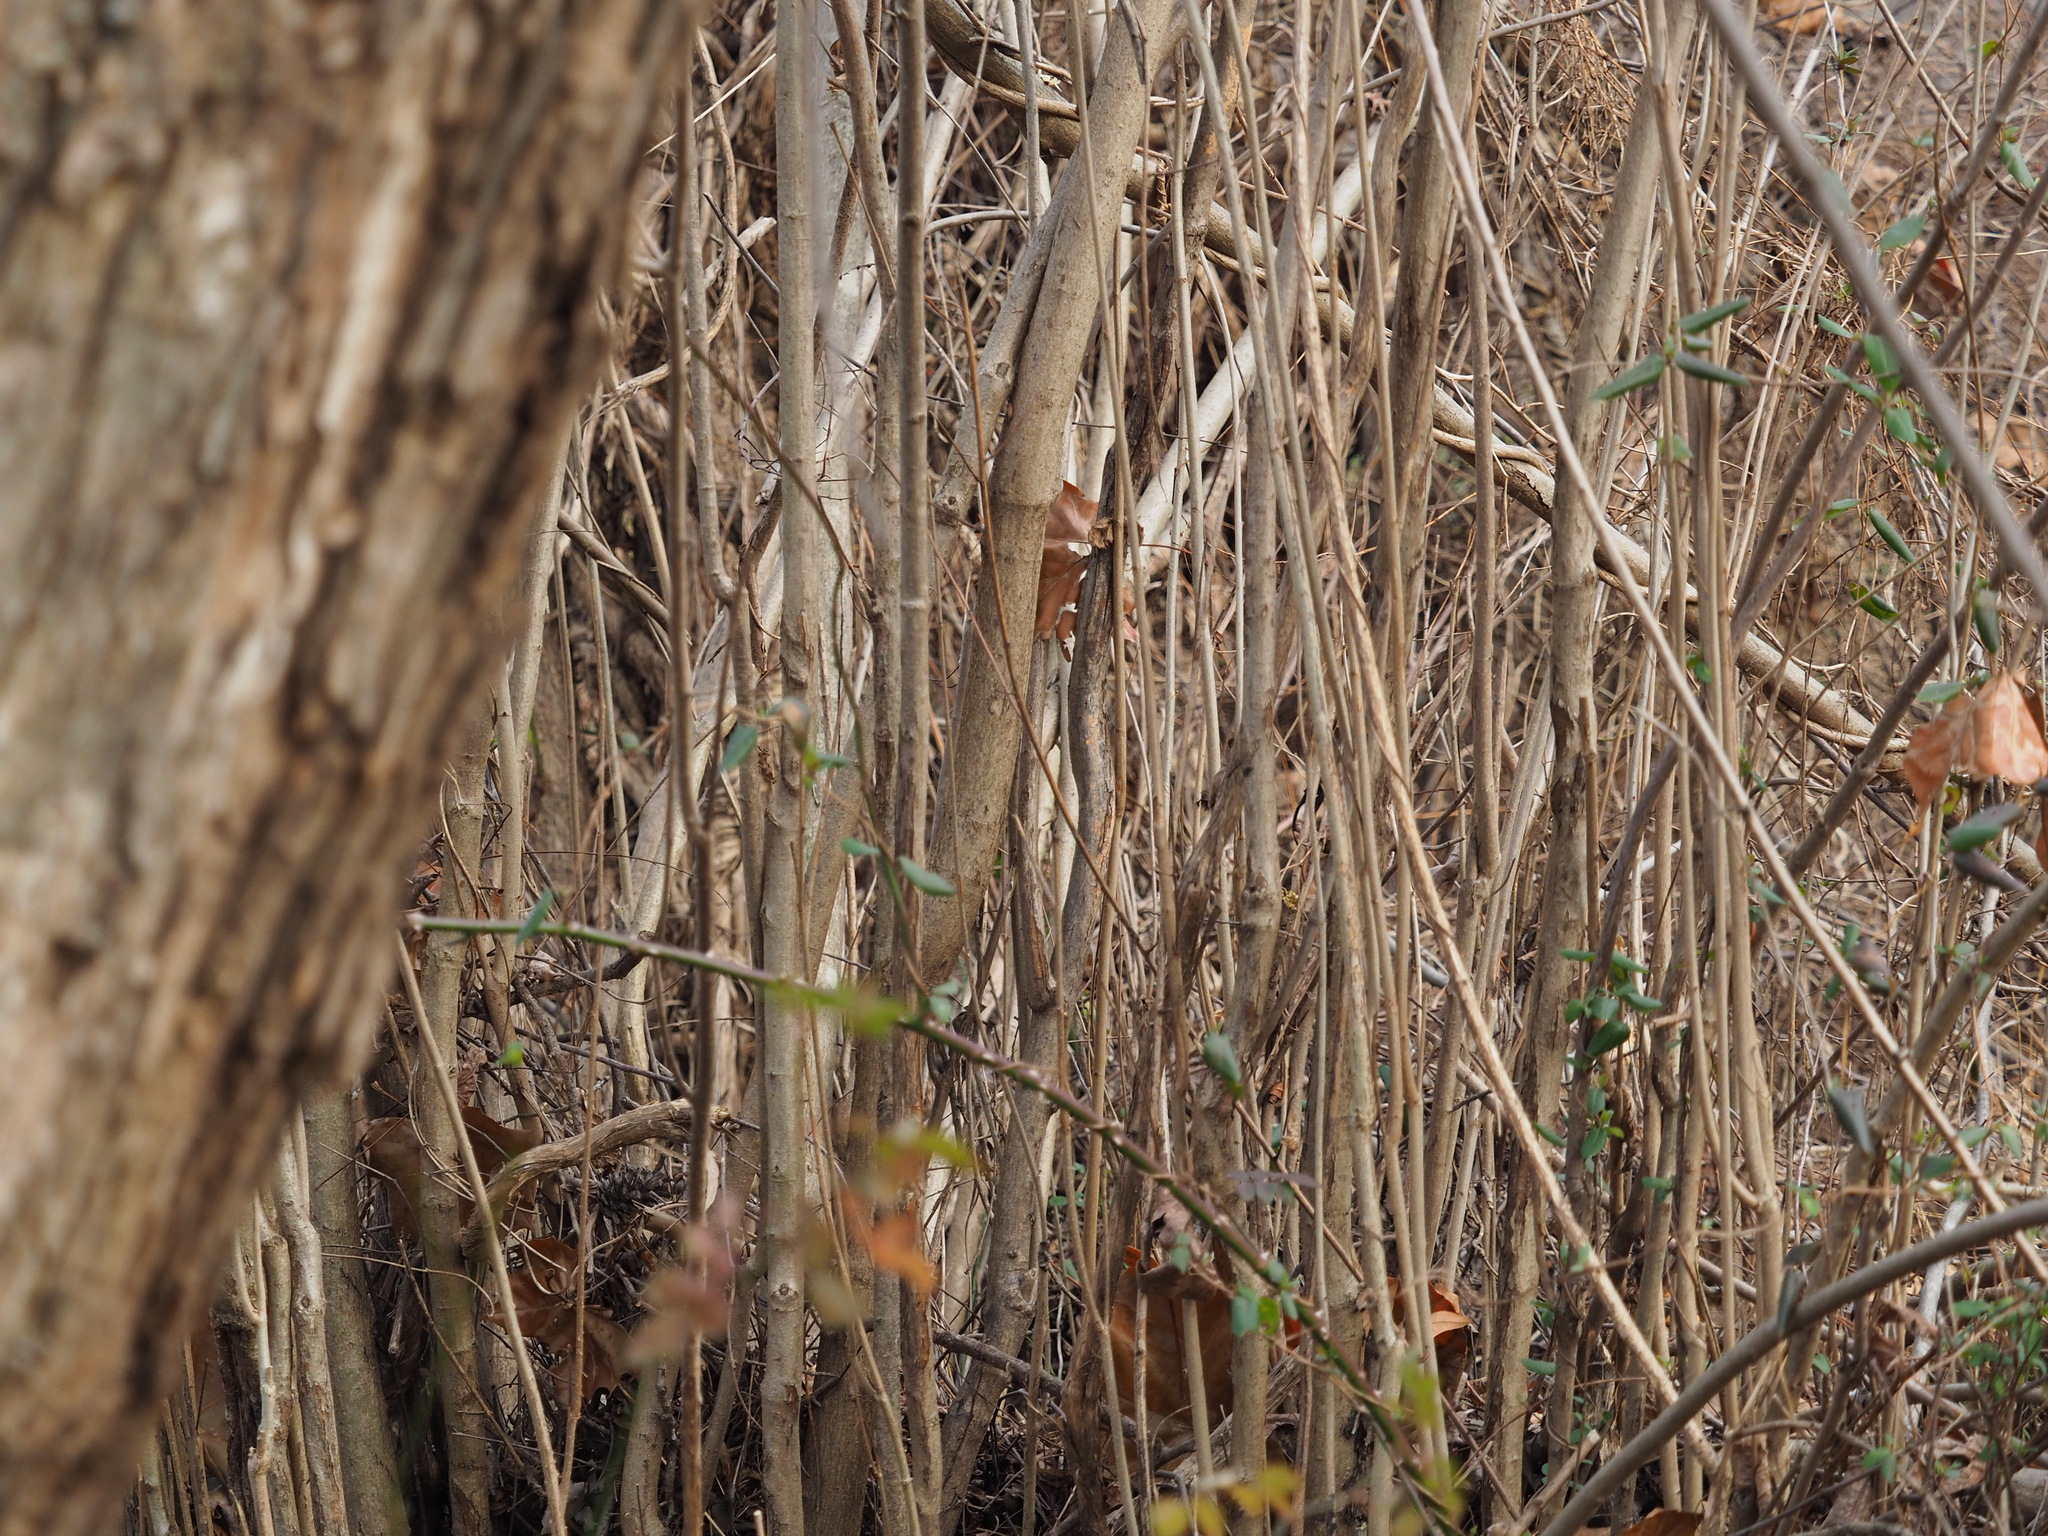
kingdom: Plantae
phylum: Tracheophyta
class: Magnoliopsida
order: Fagales
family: Betulaceae
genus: Corylus
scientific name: Corylus americana
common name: American hazel
